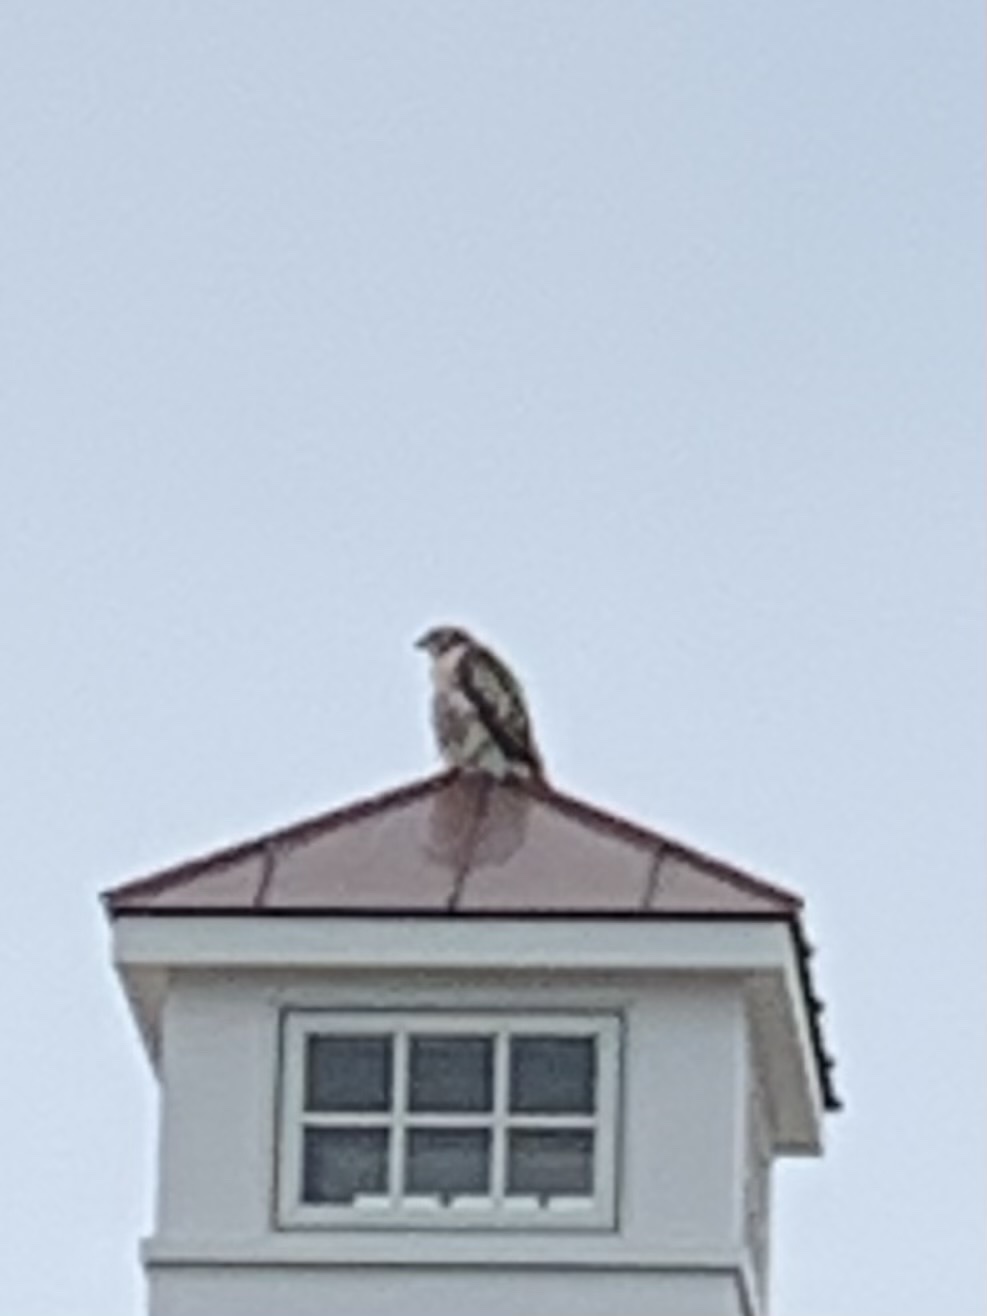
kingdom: Animalia
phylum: Chordata
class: Aves
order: Accipitriformes
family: Accipitridae
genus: Buteo
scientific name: Buteo jamaicensis
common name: Red-tailed hawk
